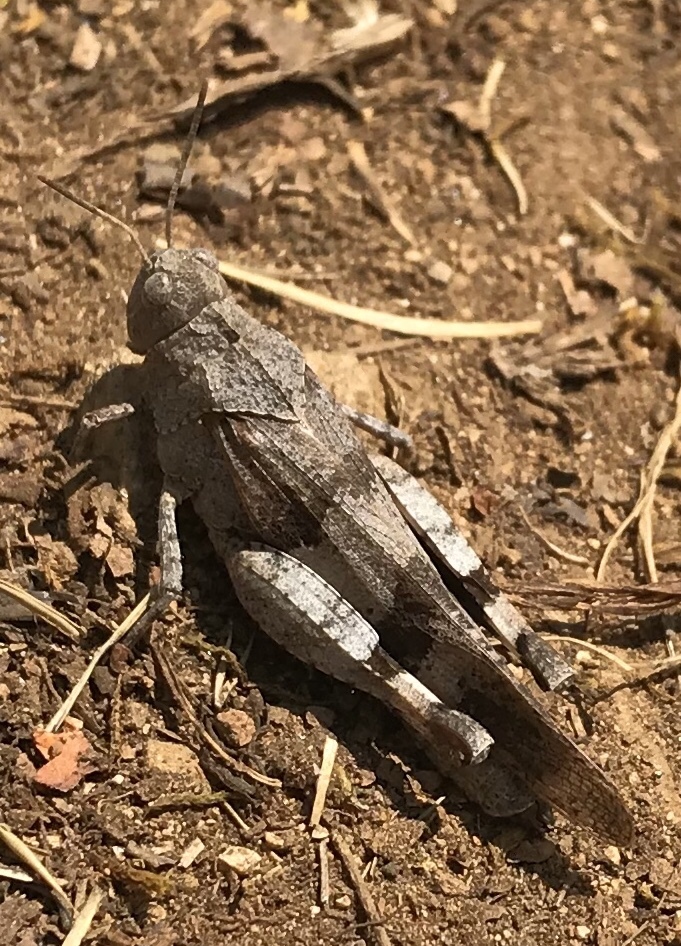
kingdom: Animalia
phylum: Arthropoda
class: Insecta
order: Orthoptera
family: Acrididae
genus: Oedipoda
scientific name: Oedipoda caerulescens
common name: Blue-winged grasshopper
